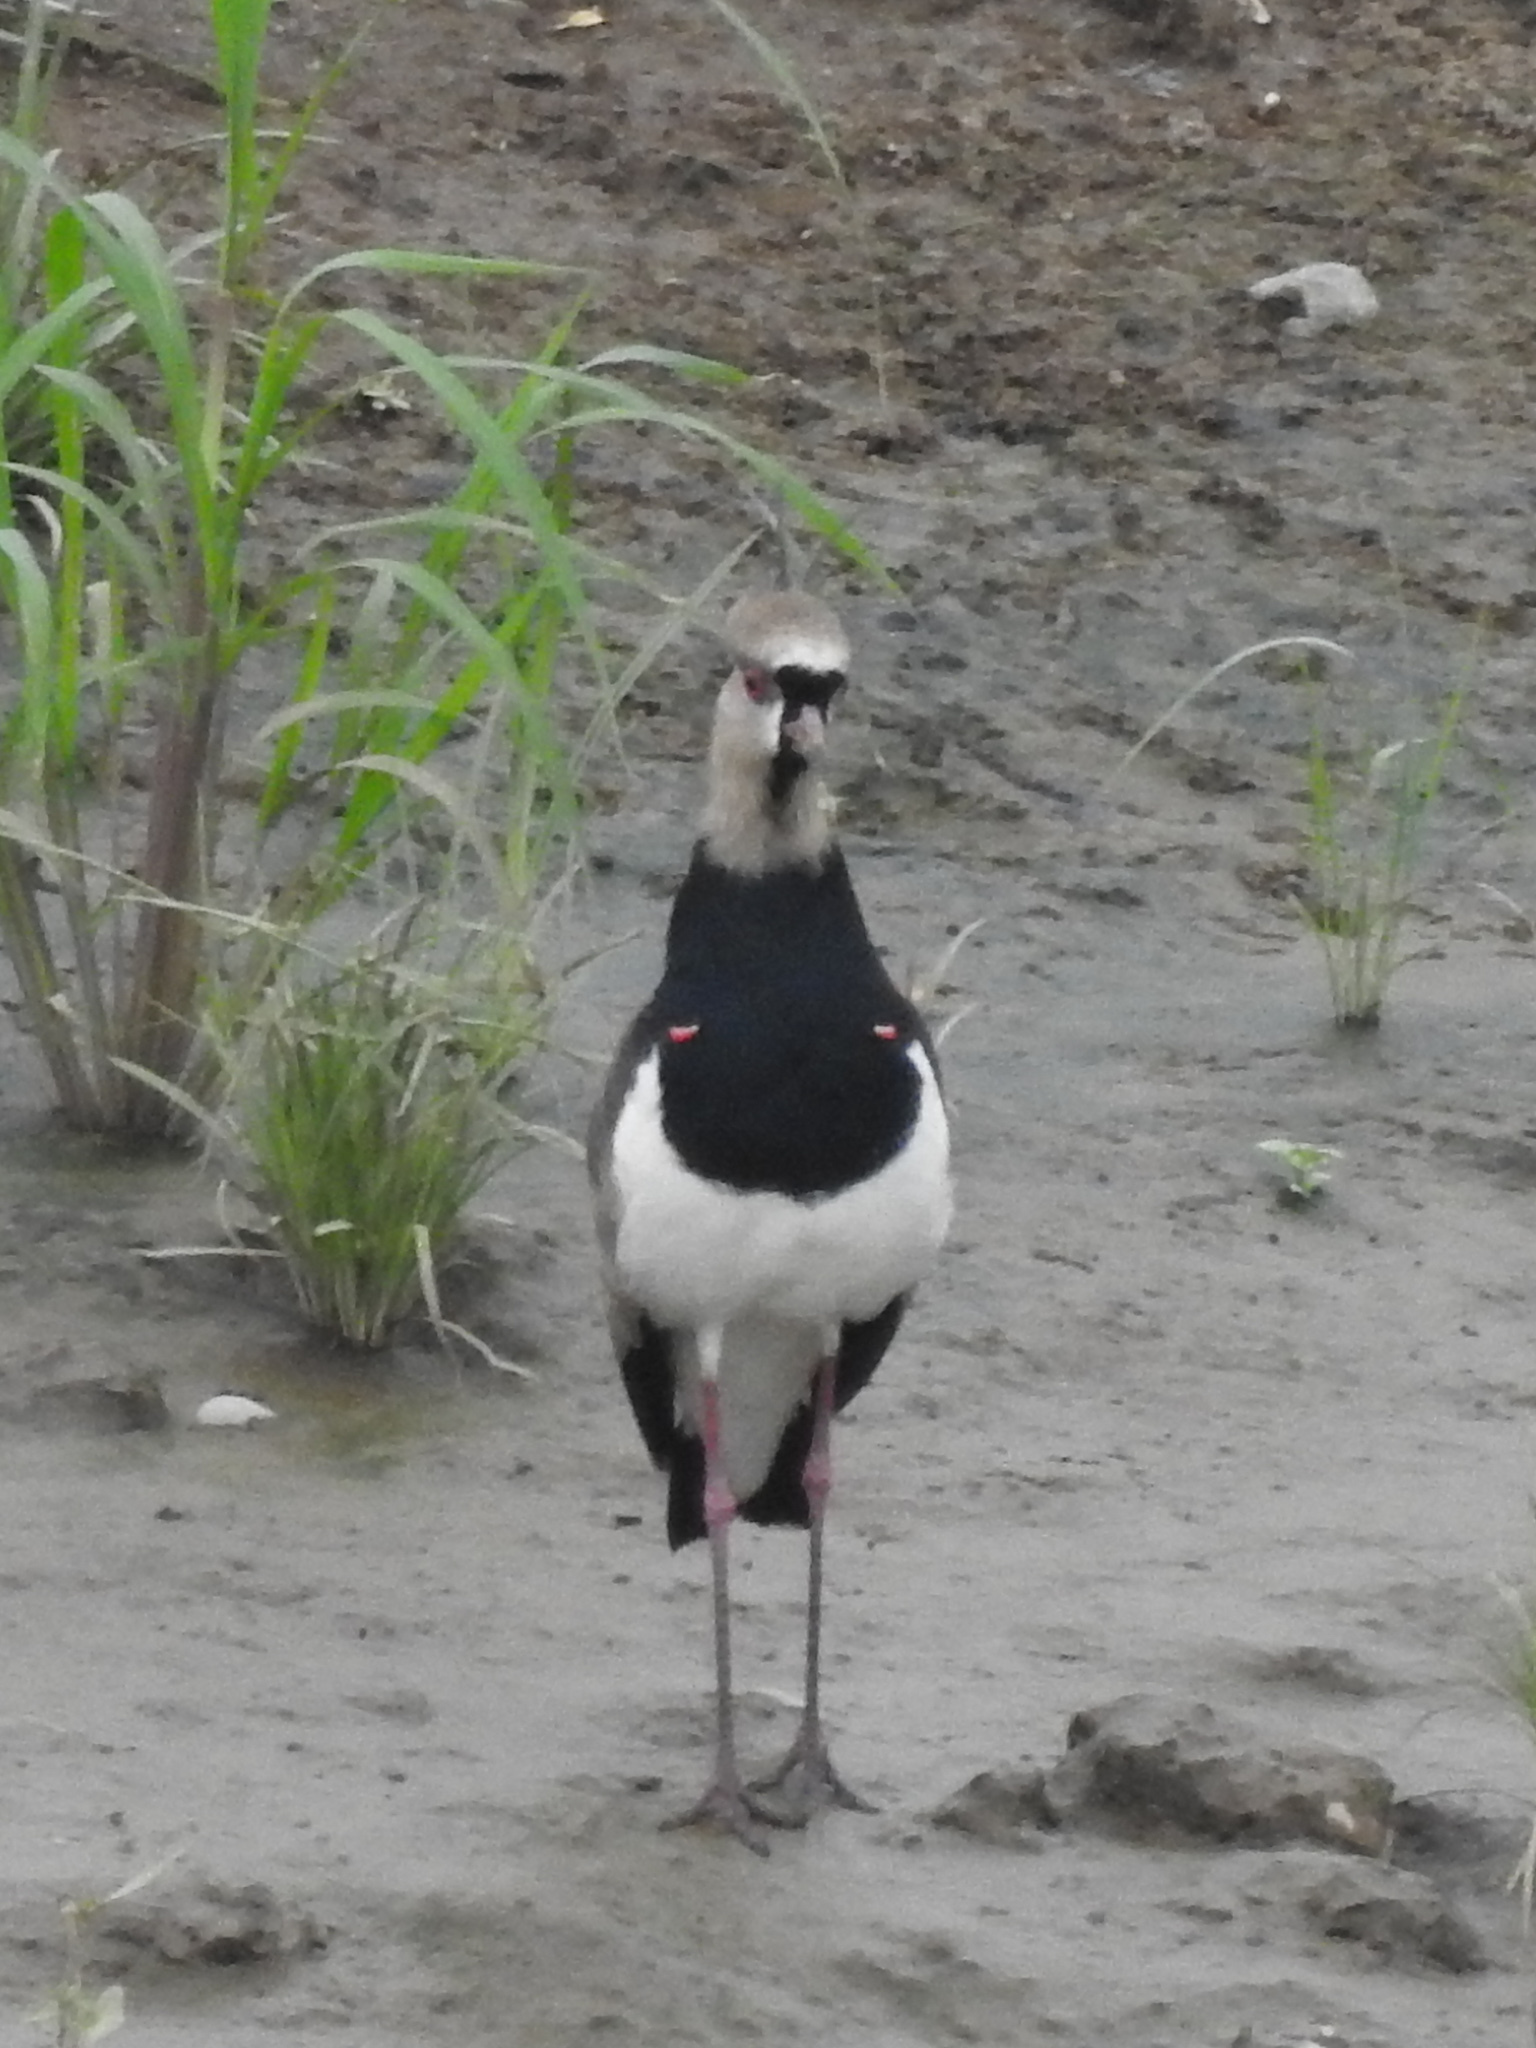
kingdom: Animalia
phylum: Chordata
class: Aves
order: Charadriiformes
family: Charadriidae
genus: Vanellus
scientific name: Vanellus chilensis
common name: Southern lapwing
